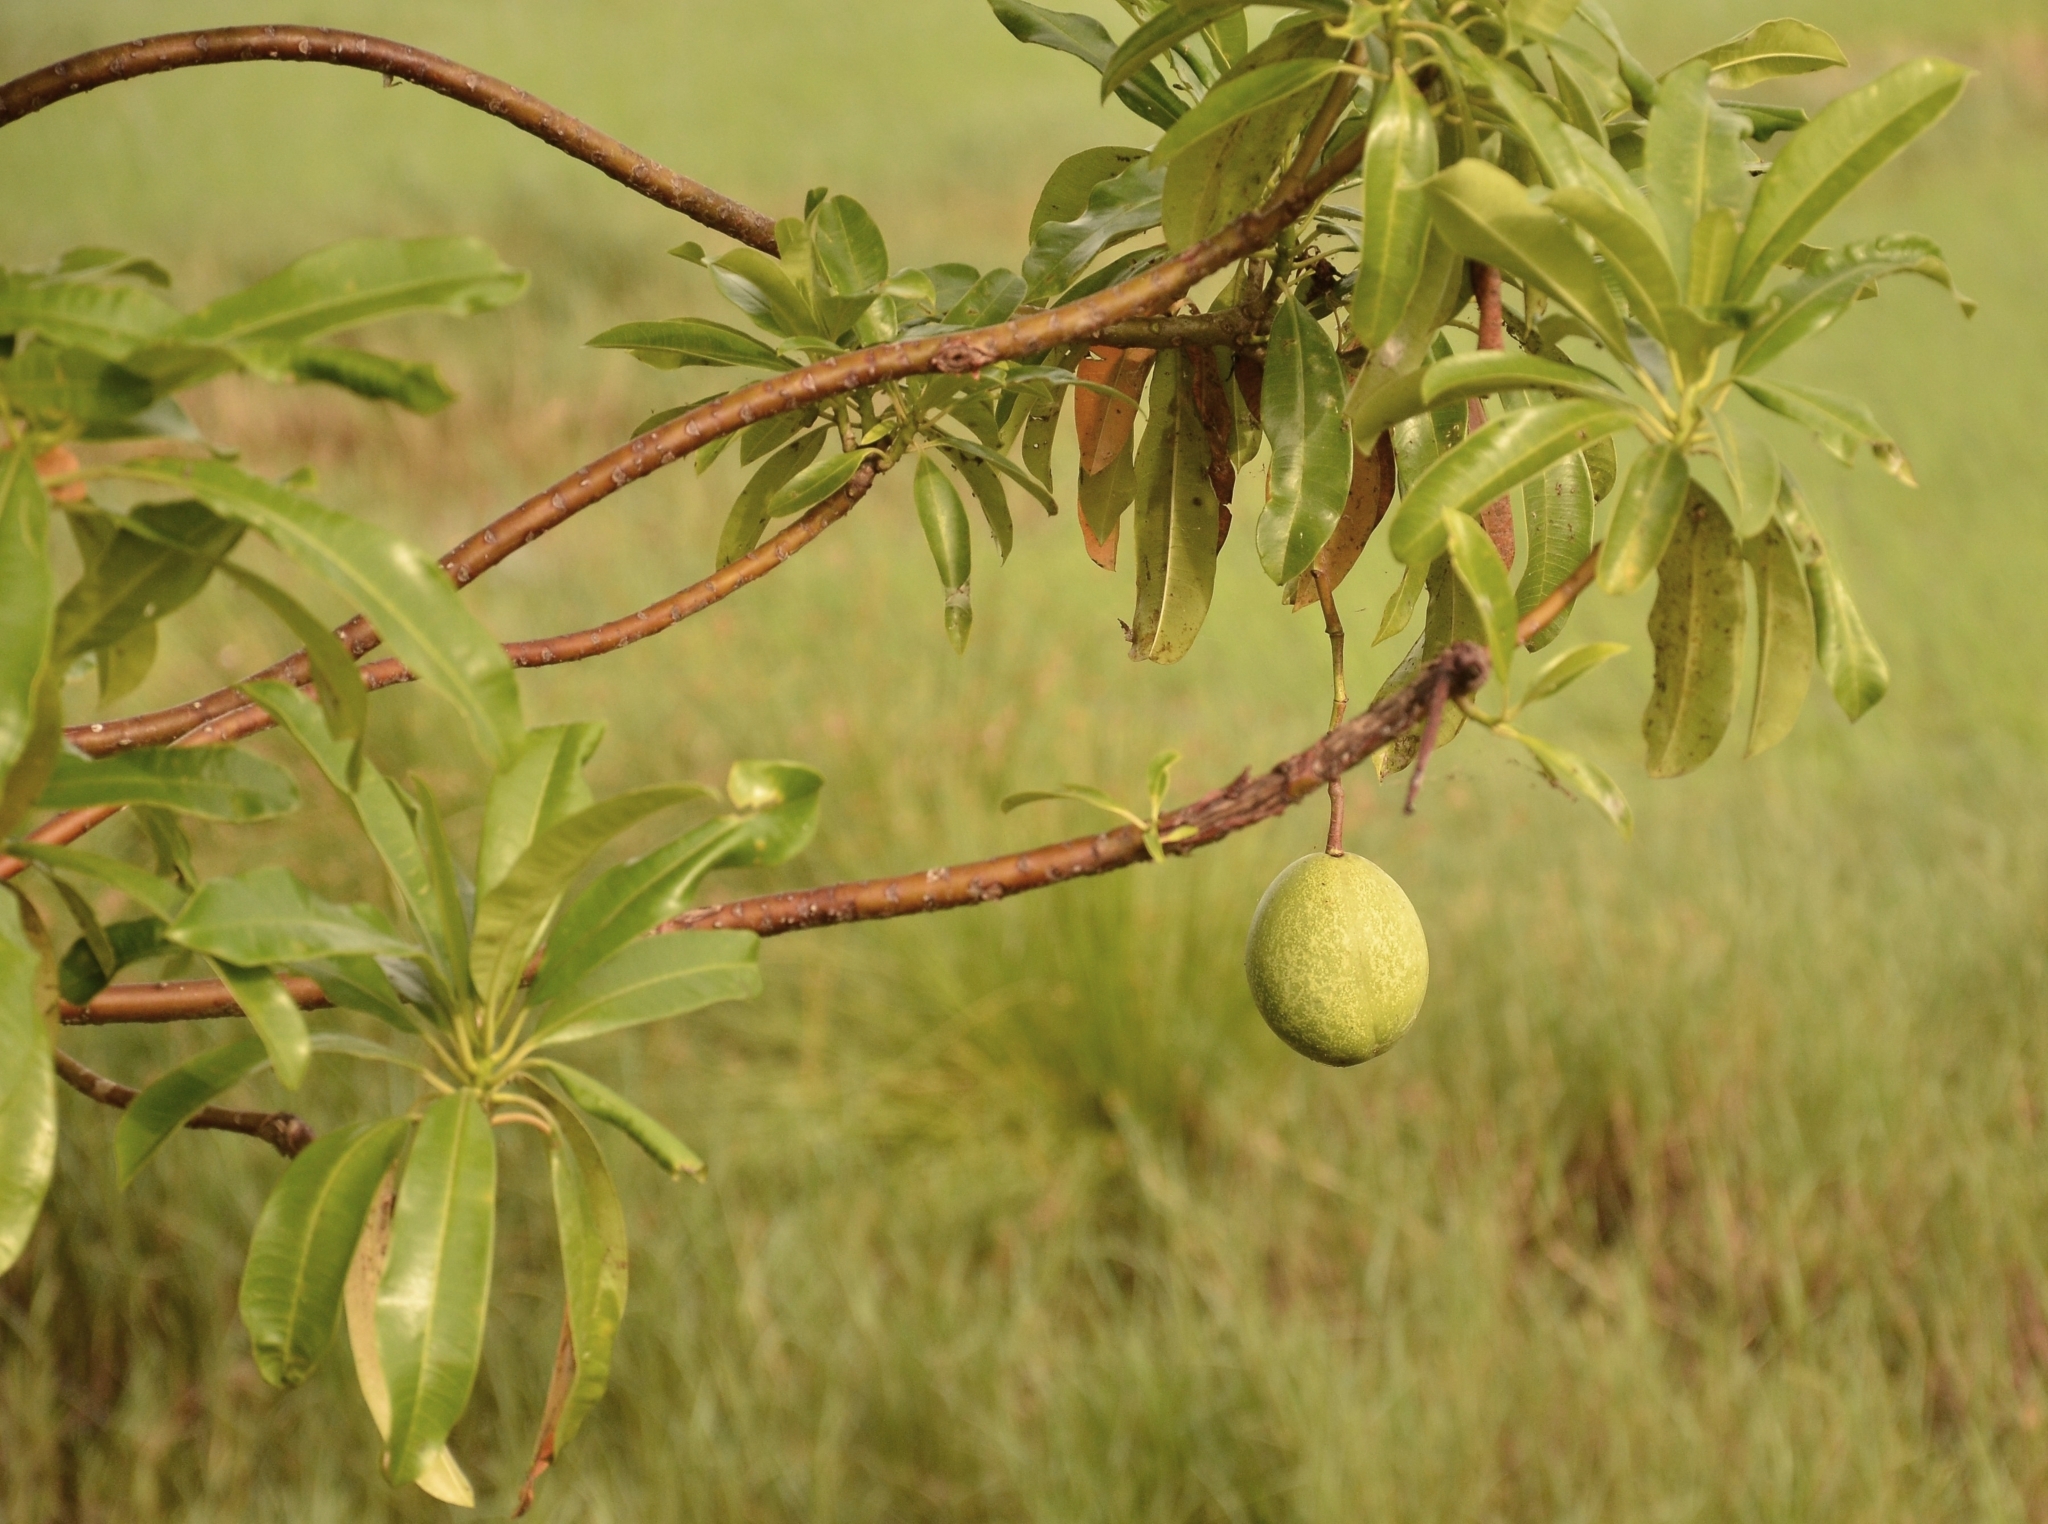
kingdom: Plantae
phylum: Tracheophyta
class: Magnoliopsida
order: Gentianales
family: Apocynaceae
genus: Cerbera
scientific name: Cerbera odollam
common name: Pong-pong
